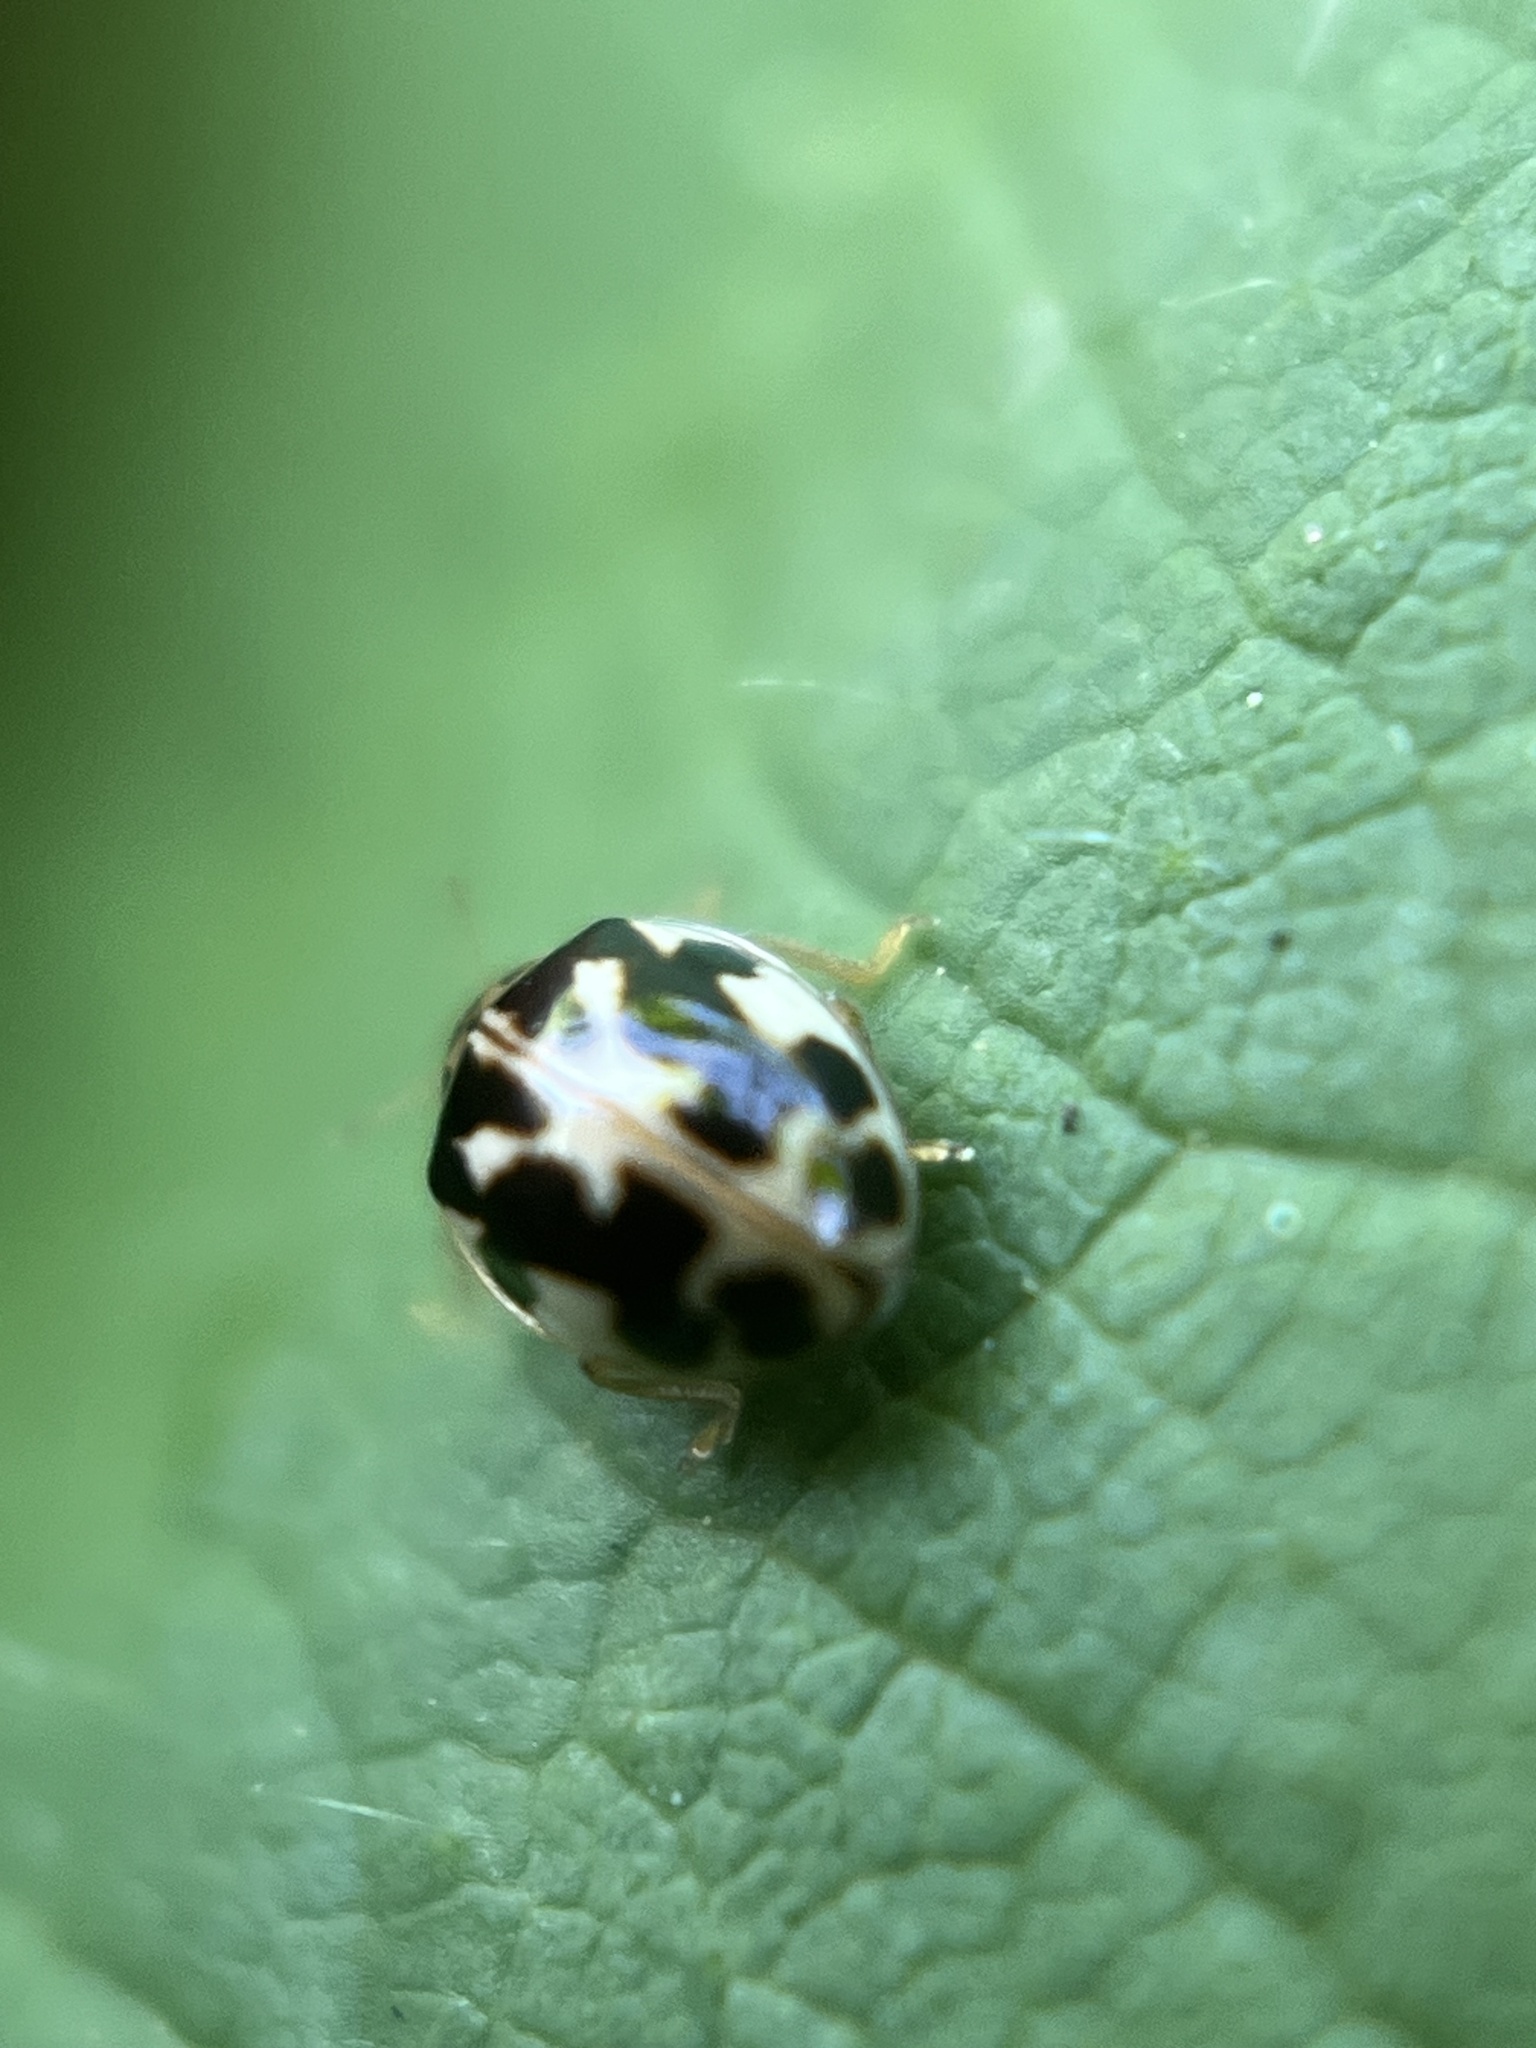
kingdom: Animalia
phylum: Arthropoda
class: Insecta
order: Coleoptera
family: Coccinellidae
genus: Psyllobora
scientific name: Psyllobora vigintimaculata
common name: Ladybird beetle
